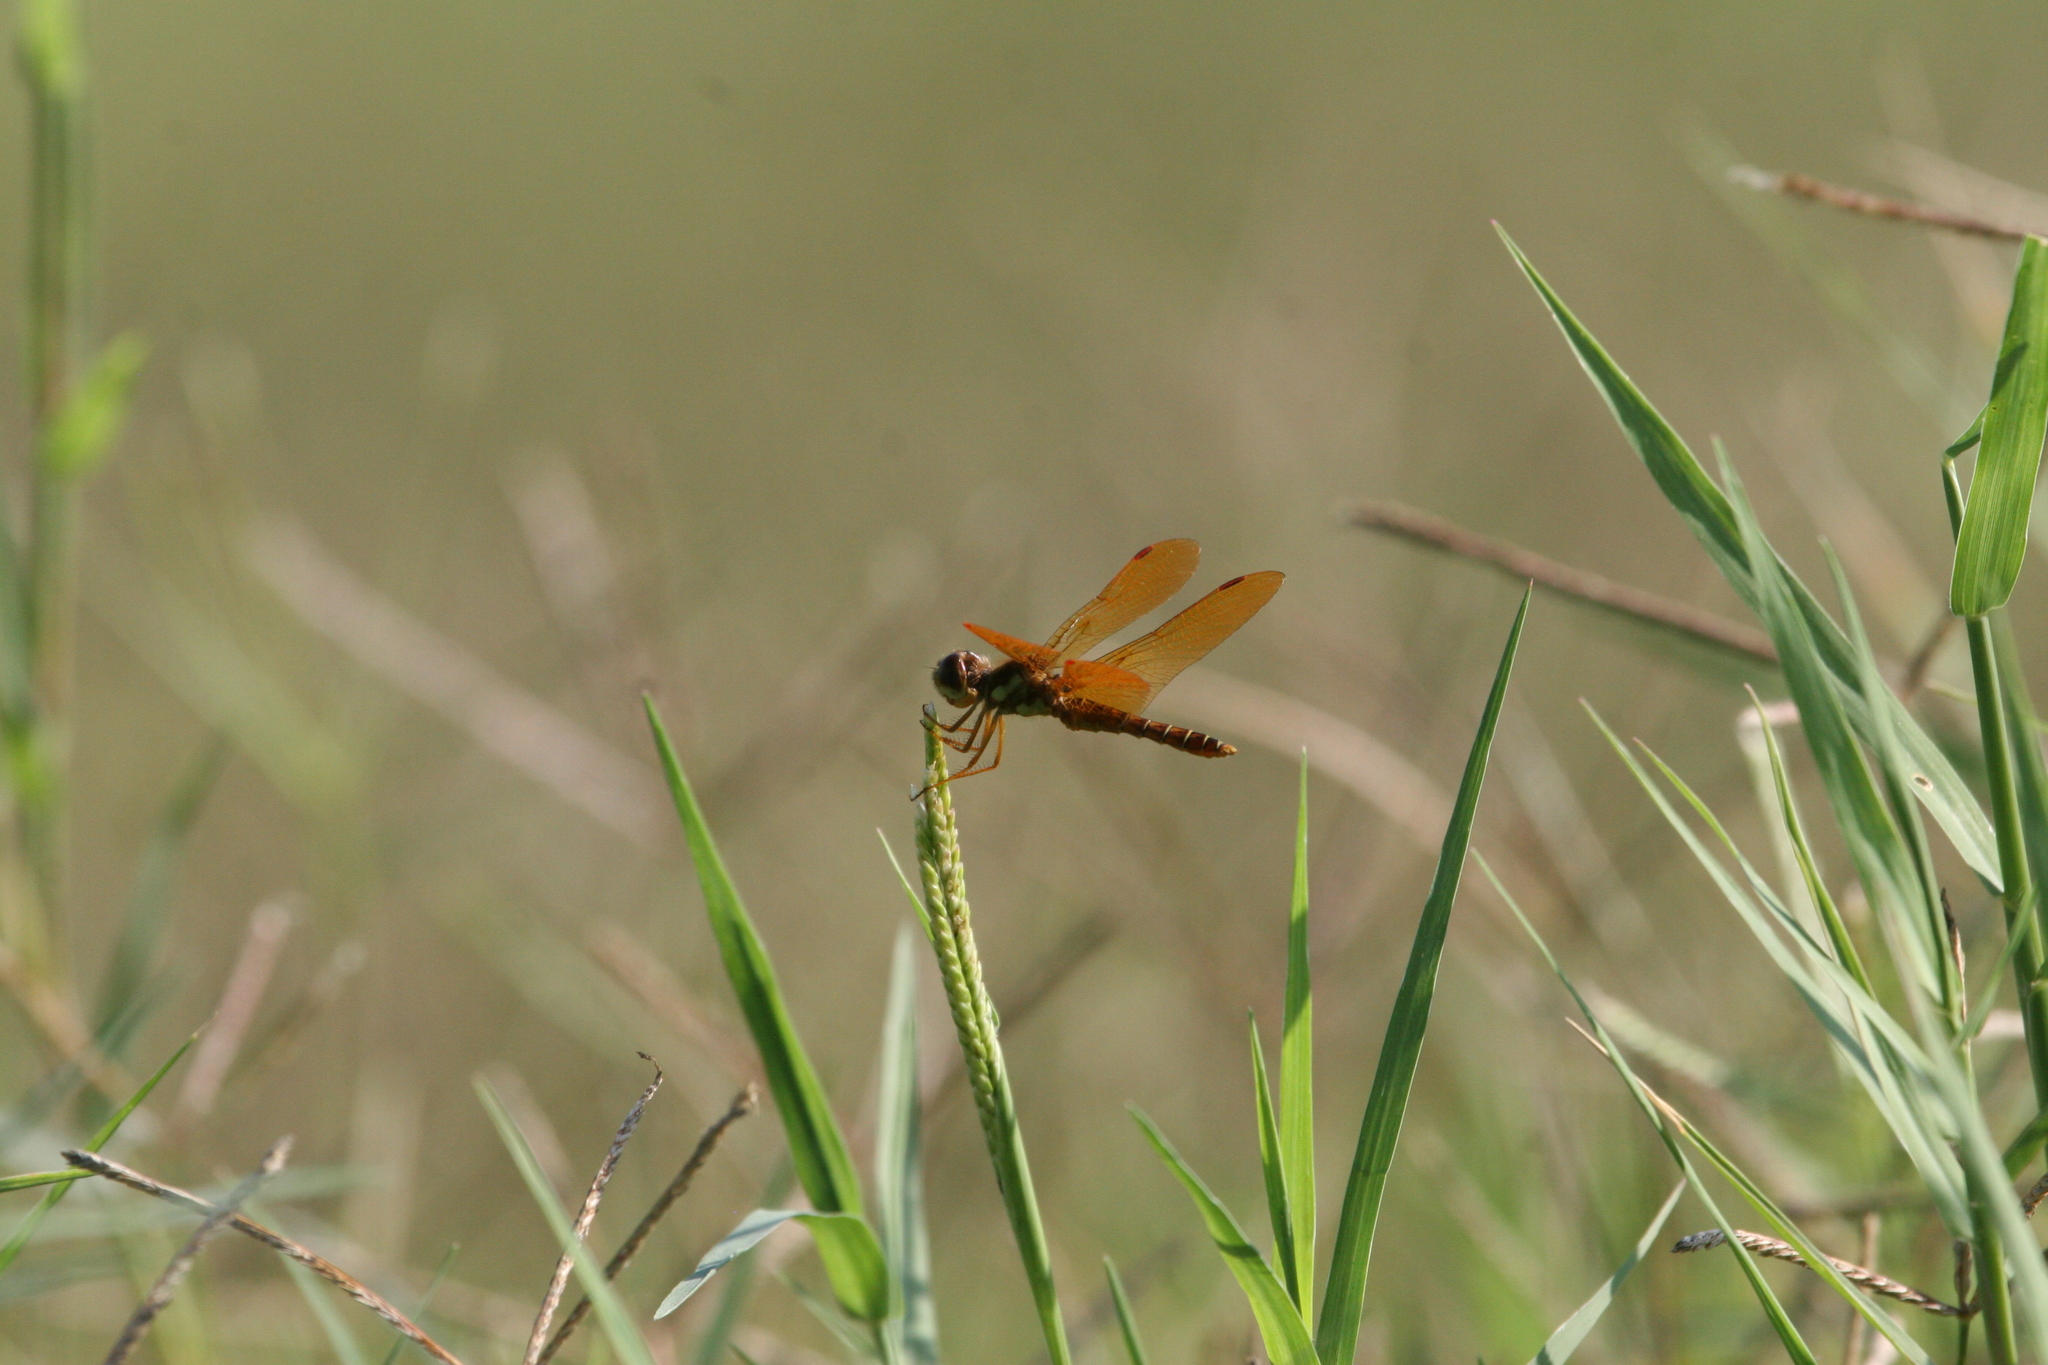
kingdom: Animalia
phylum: Arthropoda
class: Insecta
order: Odonata
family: Libellulidae
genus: Perithemis
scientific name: Perithemis tenera
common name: Eastern amberwing
